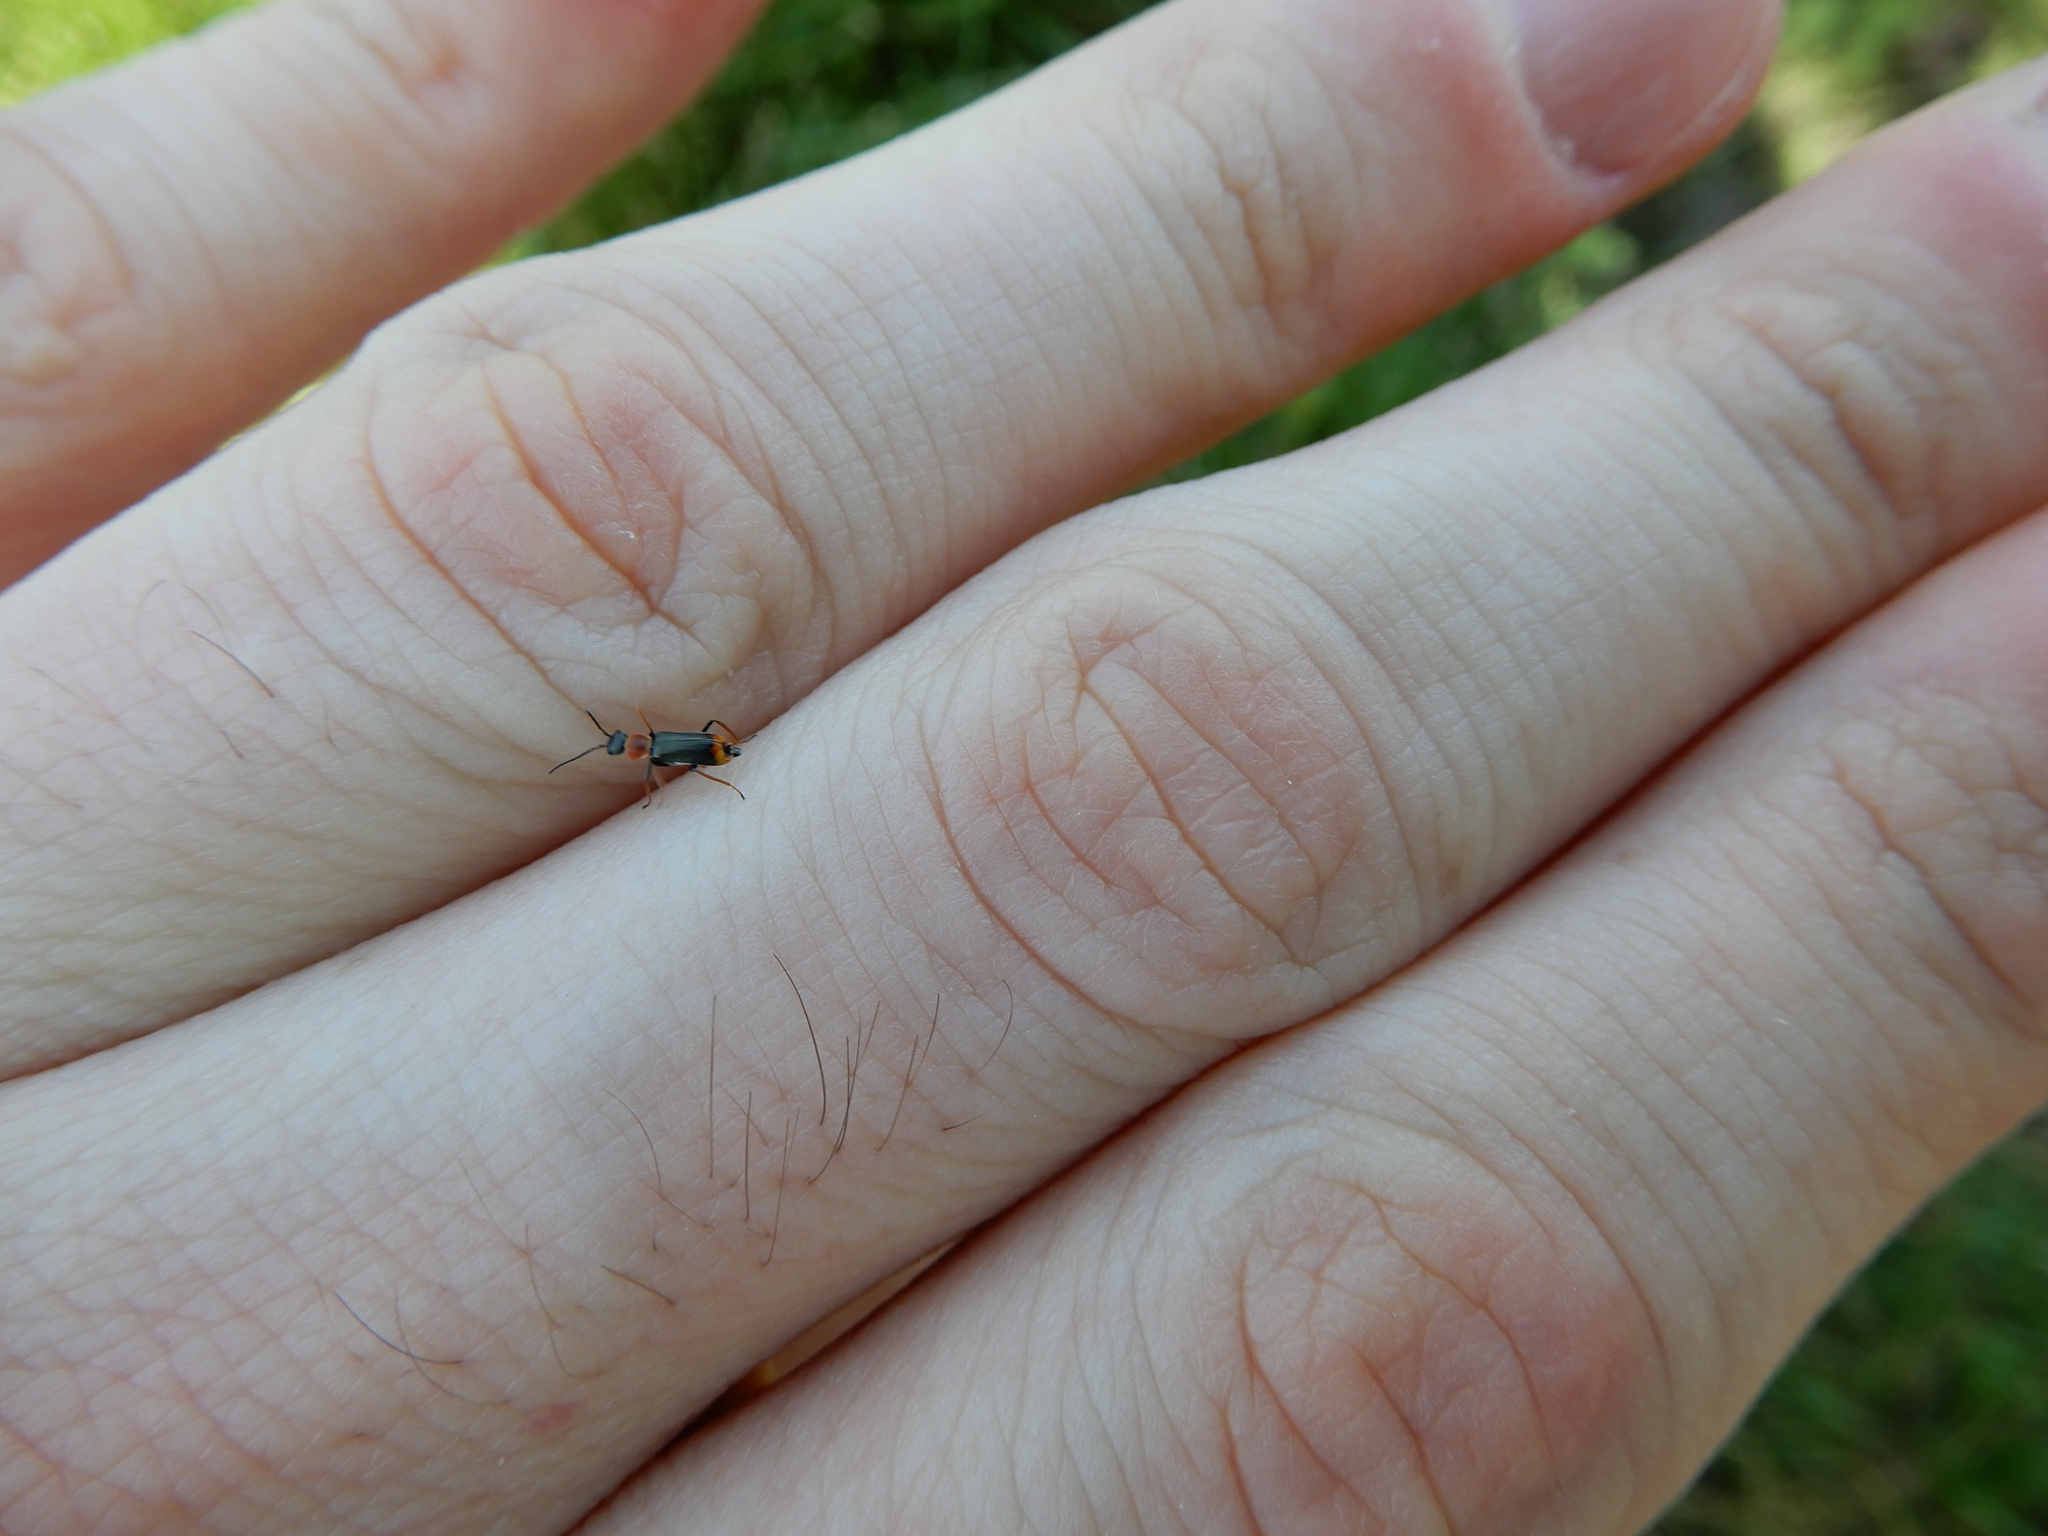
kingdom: Animalia
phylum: Arthropoda
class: Insecta
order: Coleoptera
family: Malachiidae
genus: Cerapheles
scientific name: Cerapheles terminatus
